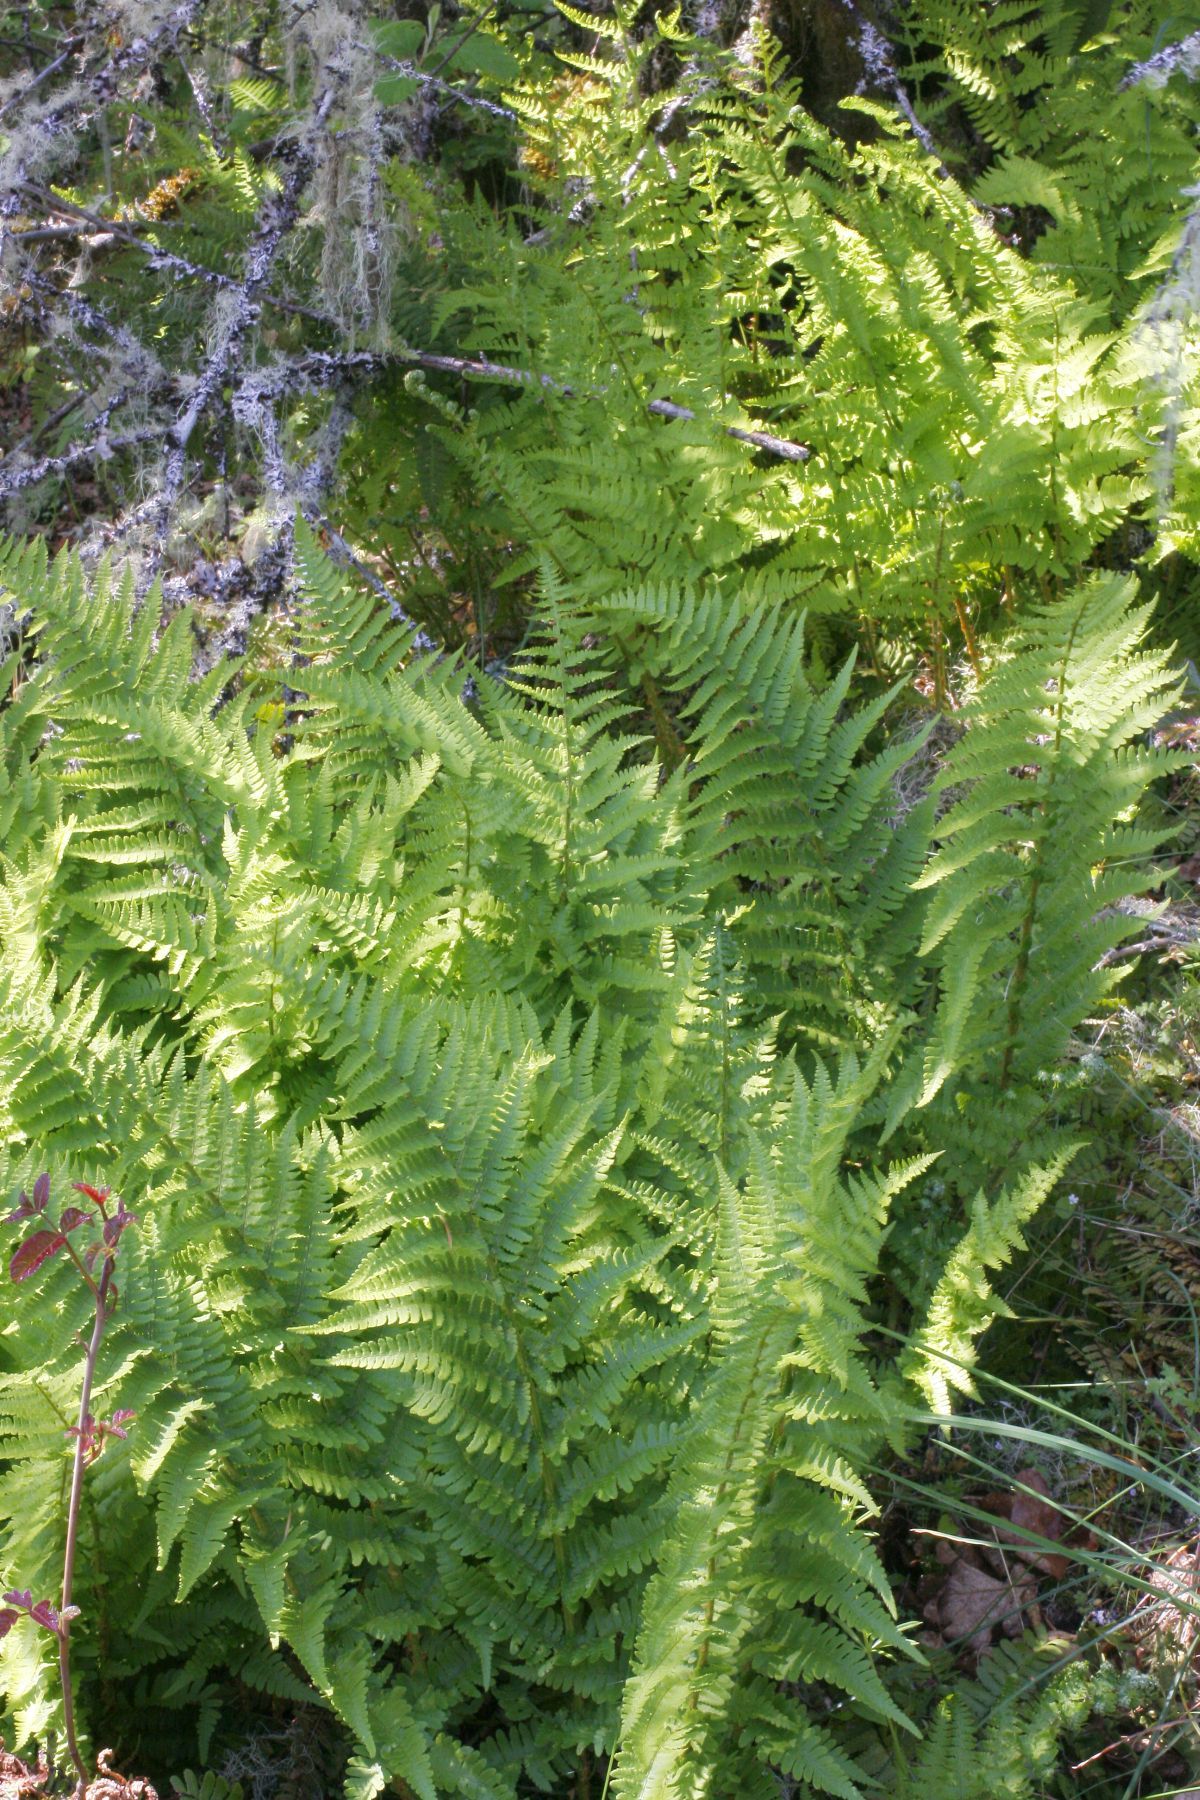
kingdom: Plantae
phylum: Tracheophyta
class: Polypodiopsida
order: Polypodiales
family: Dryopteridaceae
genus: Dryopteris
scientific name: Dryopteris arguta
